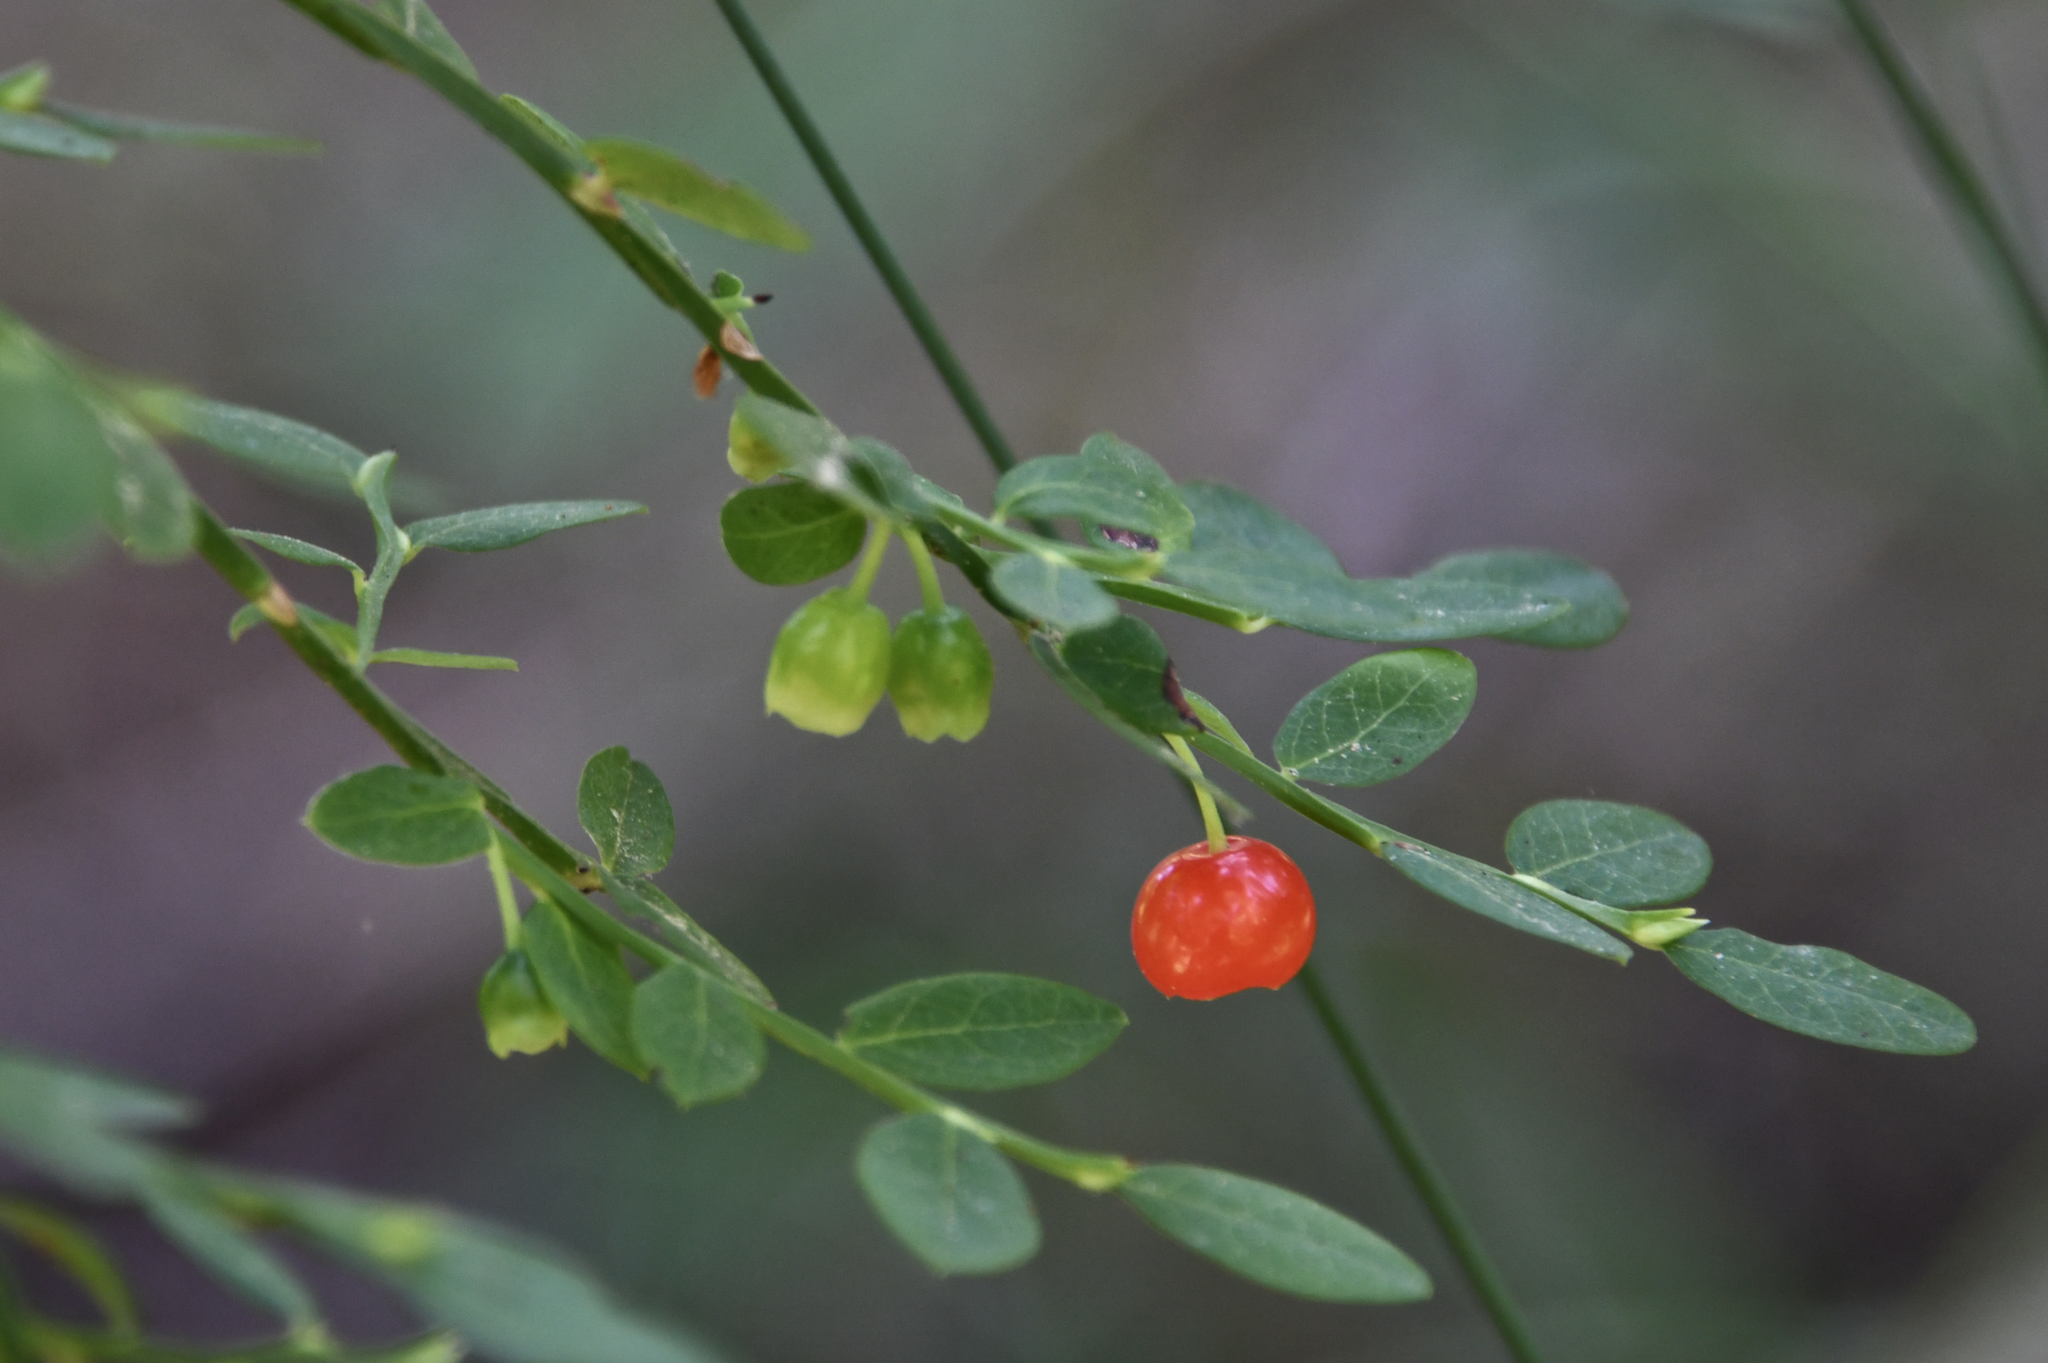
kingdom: Plantae
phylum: Tracheophyta
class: Magnoliopsida
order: Ericales
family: Ericaceae
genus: Vaccinium
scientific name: Vaccinium parvifolium
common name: Red-huckleberry
